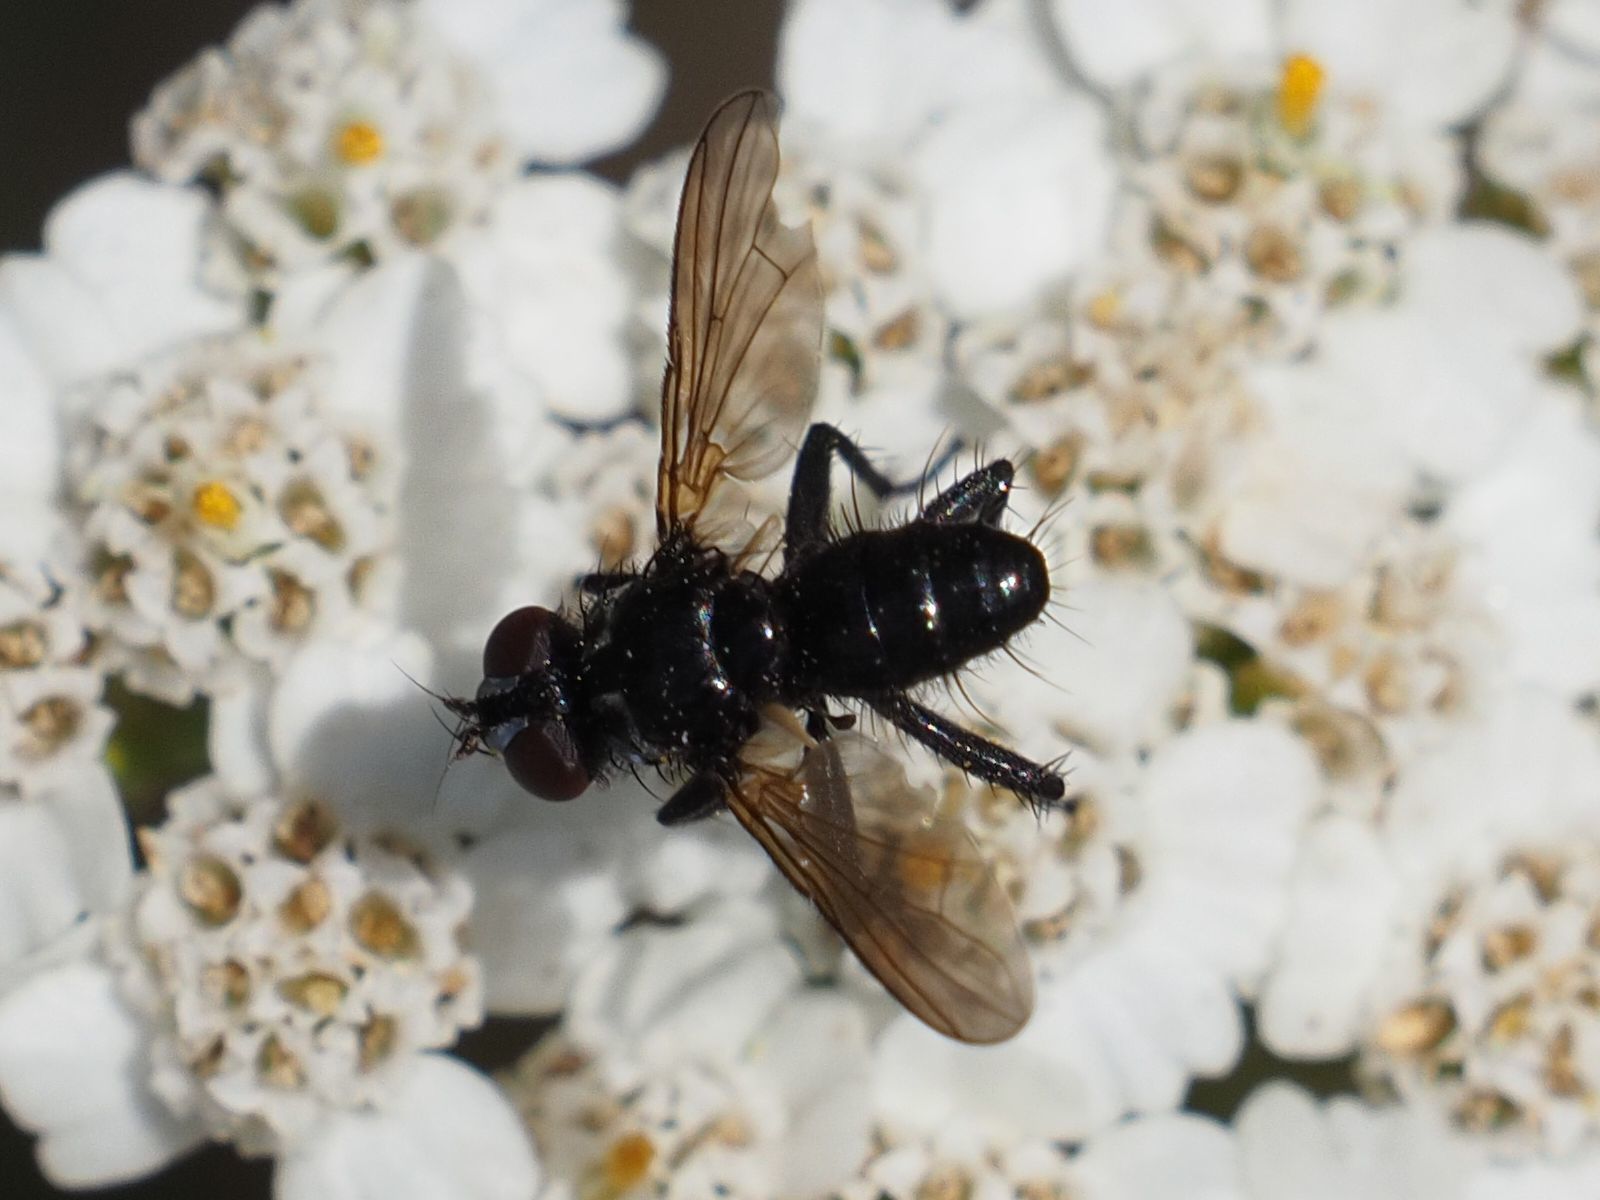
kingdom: Animalia
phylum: Arthropoda
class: Insecta
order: Diptera
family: Tachinidae
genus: Phania
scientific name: Phania funesta
